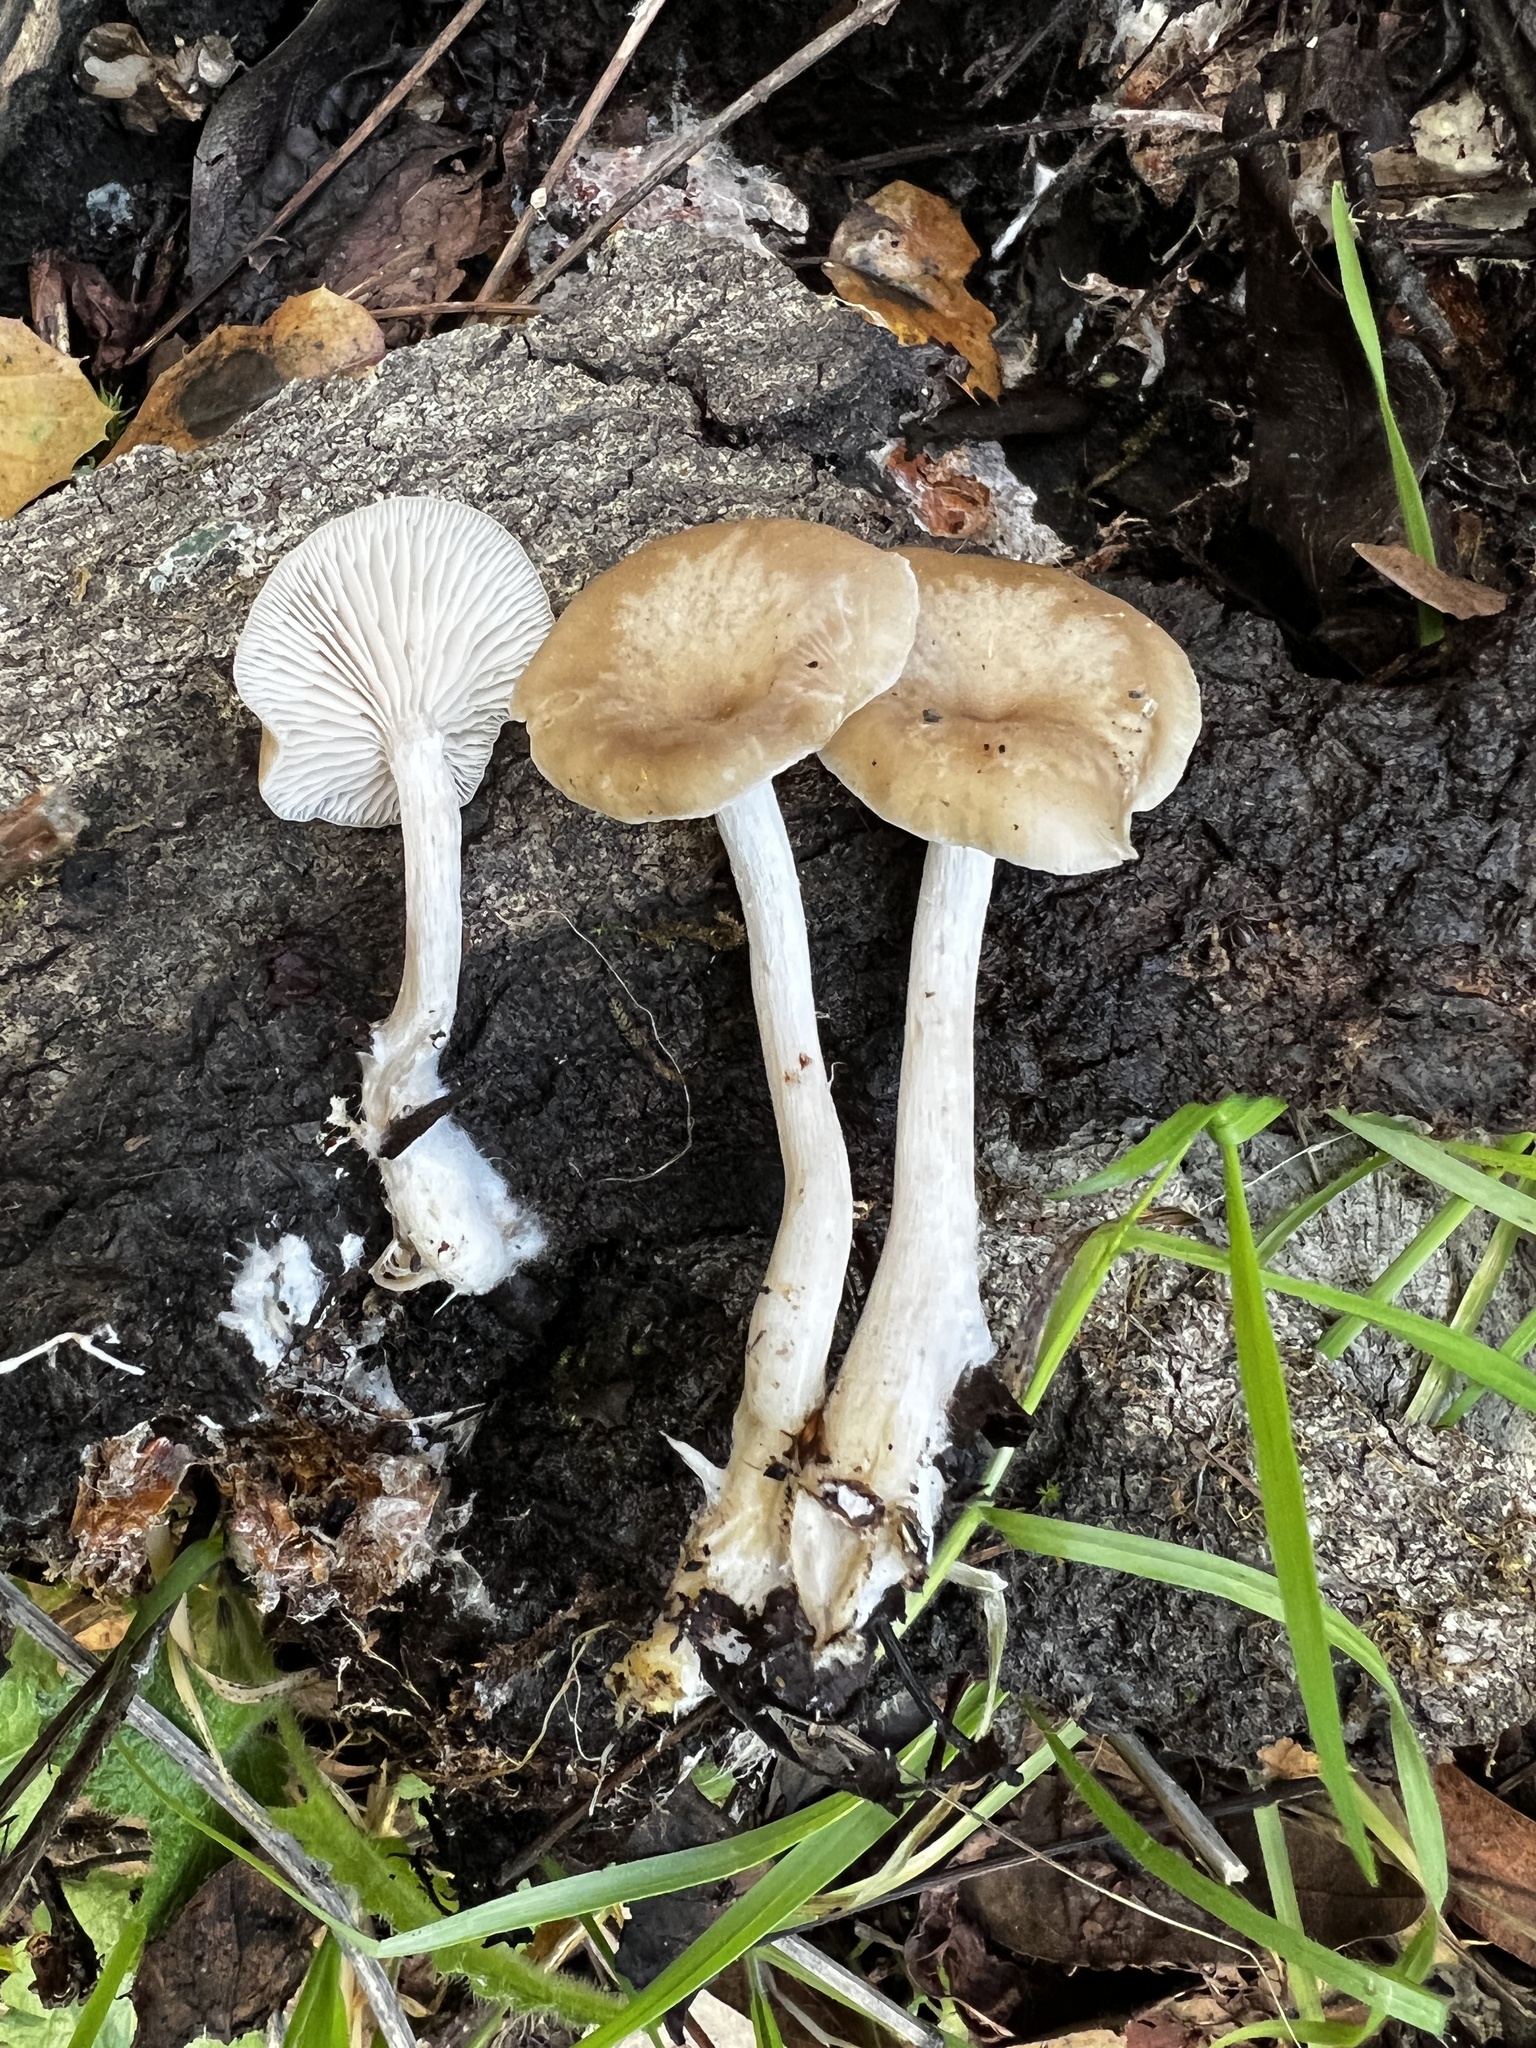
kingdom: Fungi
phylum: Basidiomycota
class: Agaricomycetes
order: Agaricales
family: Tricholomataceae
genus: Clitocybe
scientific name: Clitocybe salmonilamella
